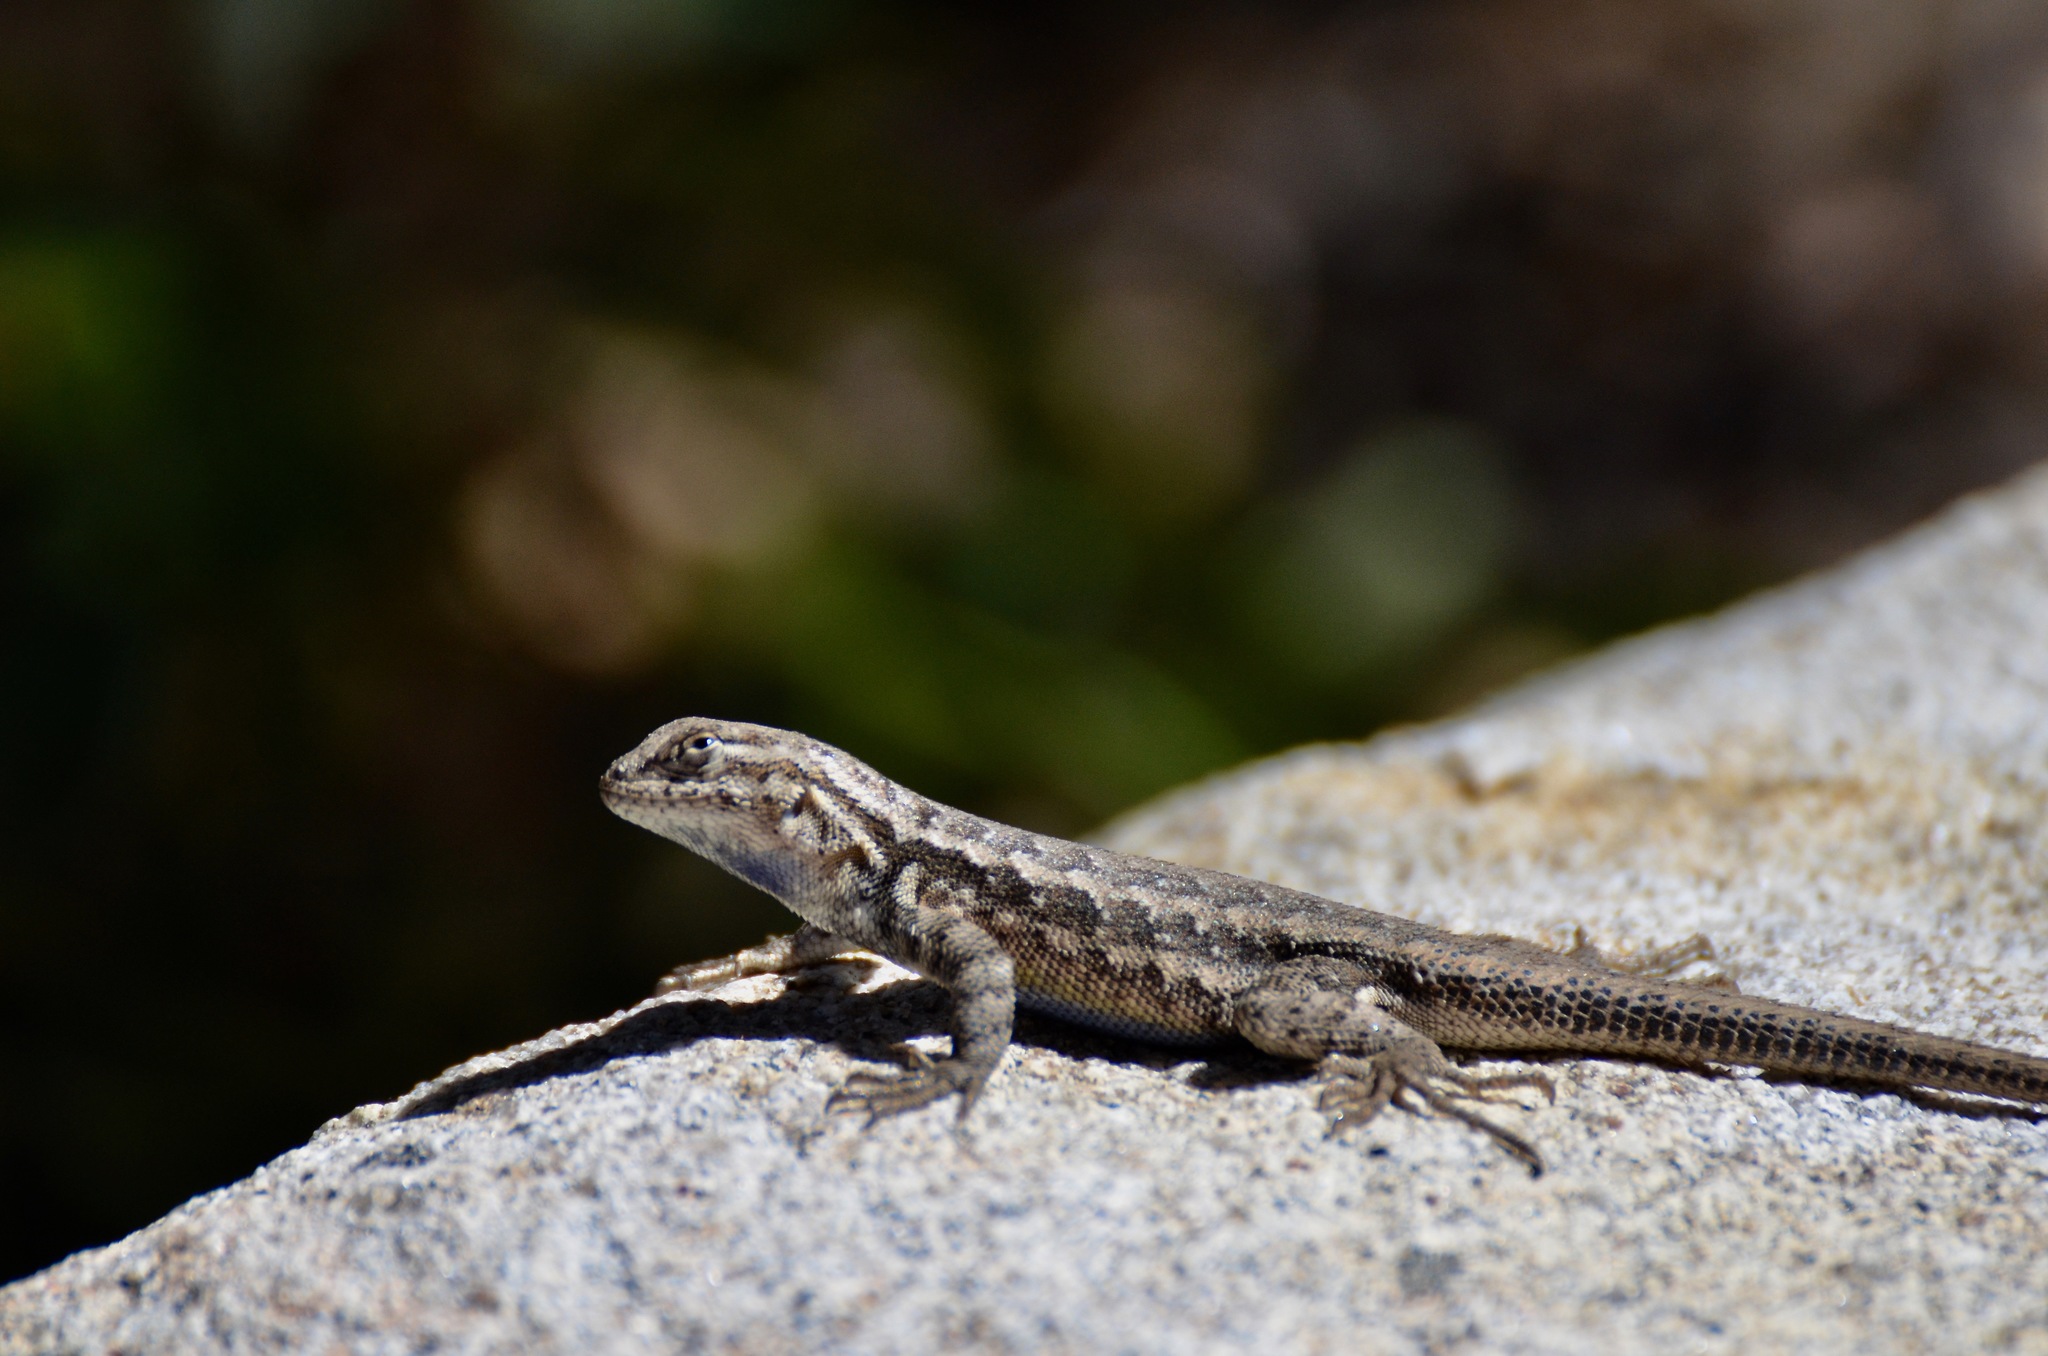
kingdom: Animalia
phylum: Chordata
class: Squamata
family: Phrynosomatidae
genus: Sceloporus
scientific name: Sceloporus graciosus
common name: Sagebrush lizard
